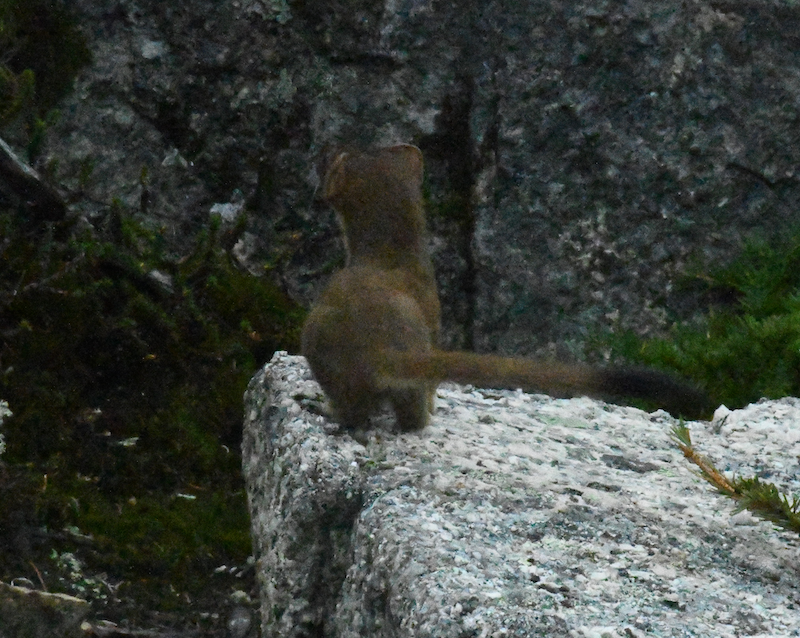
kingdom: Animalia
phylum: Chordata
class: Mammalia
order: Carnivora
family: Mustelidae
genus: Mustela
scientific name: Mustela
